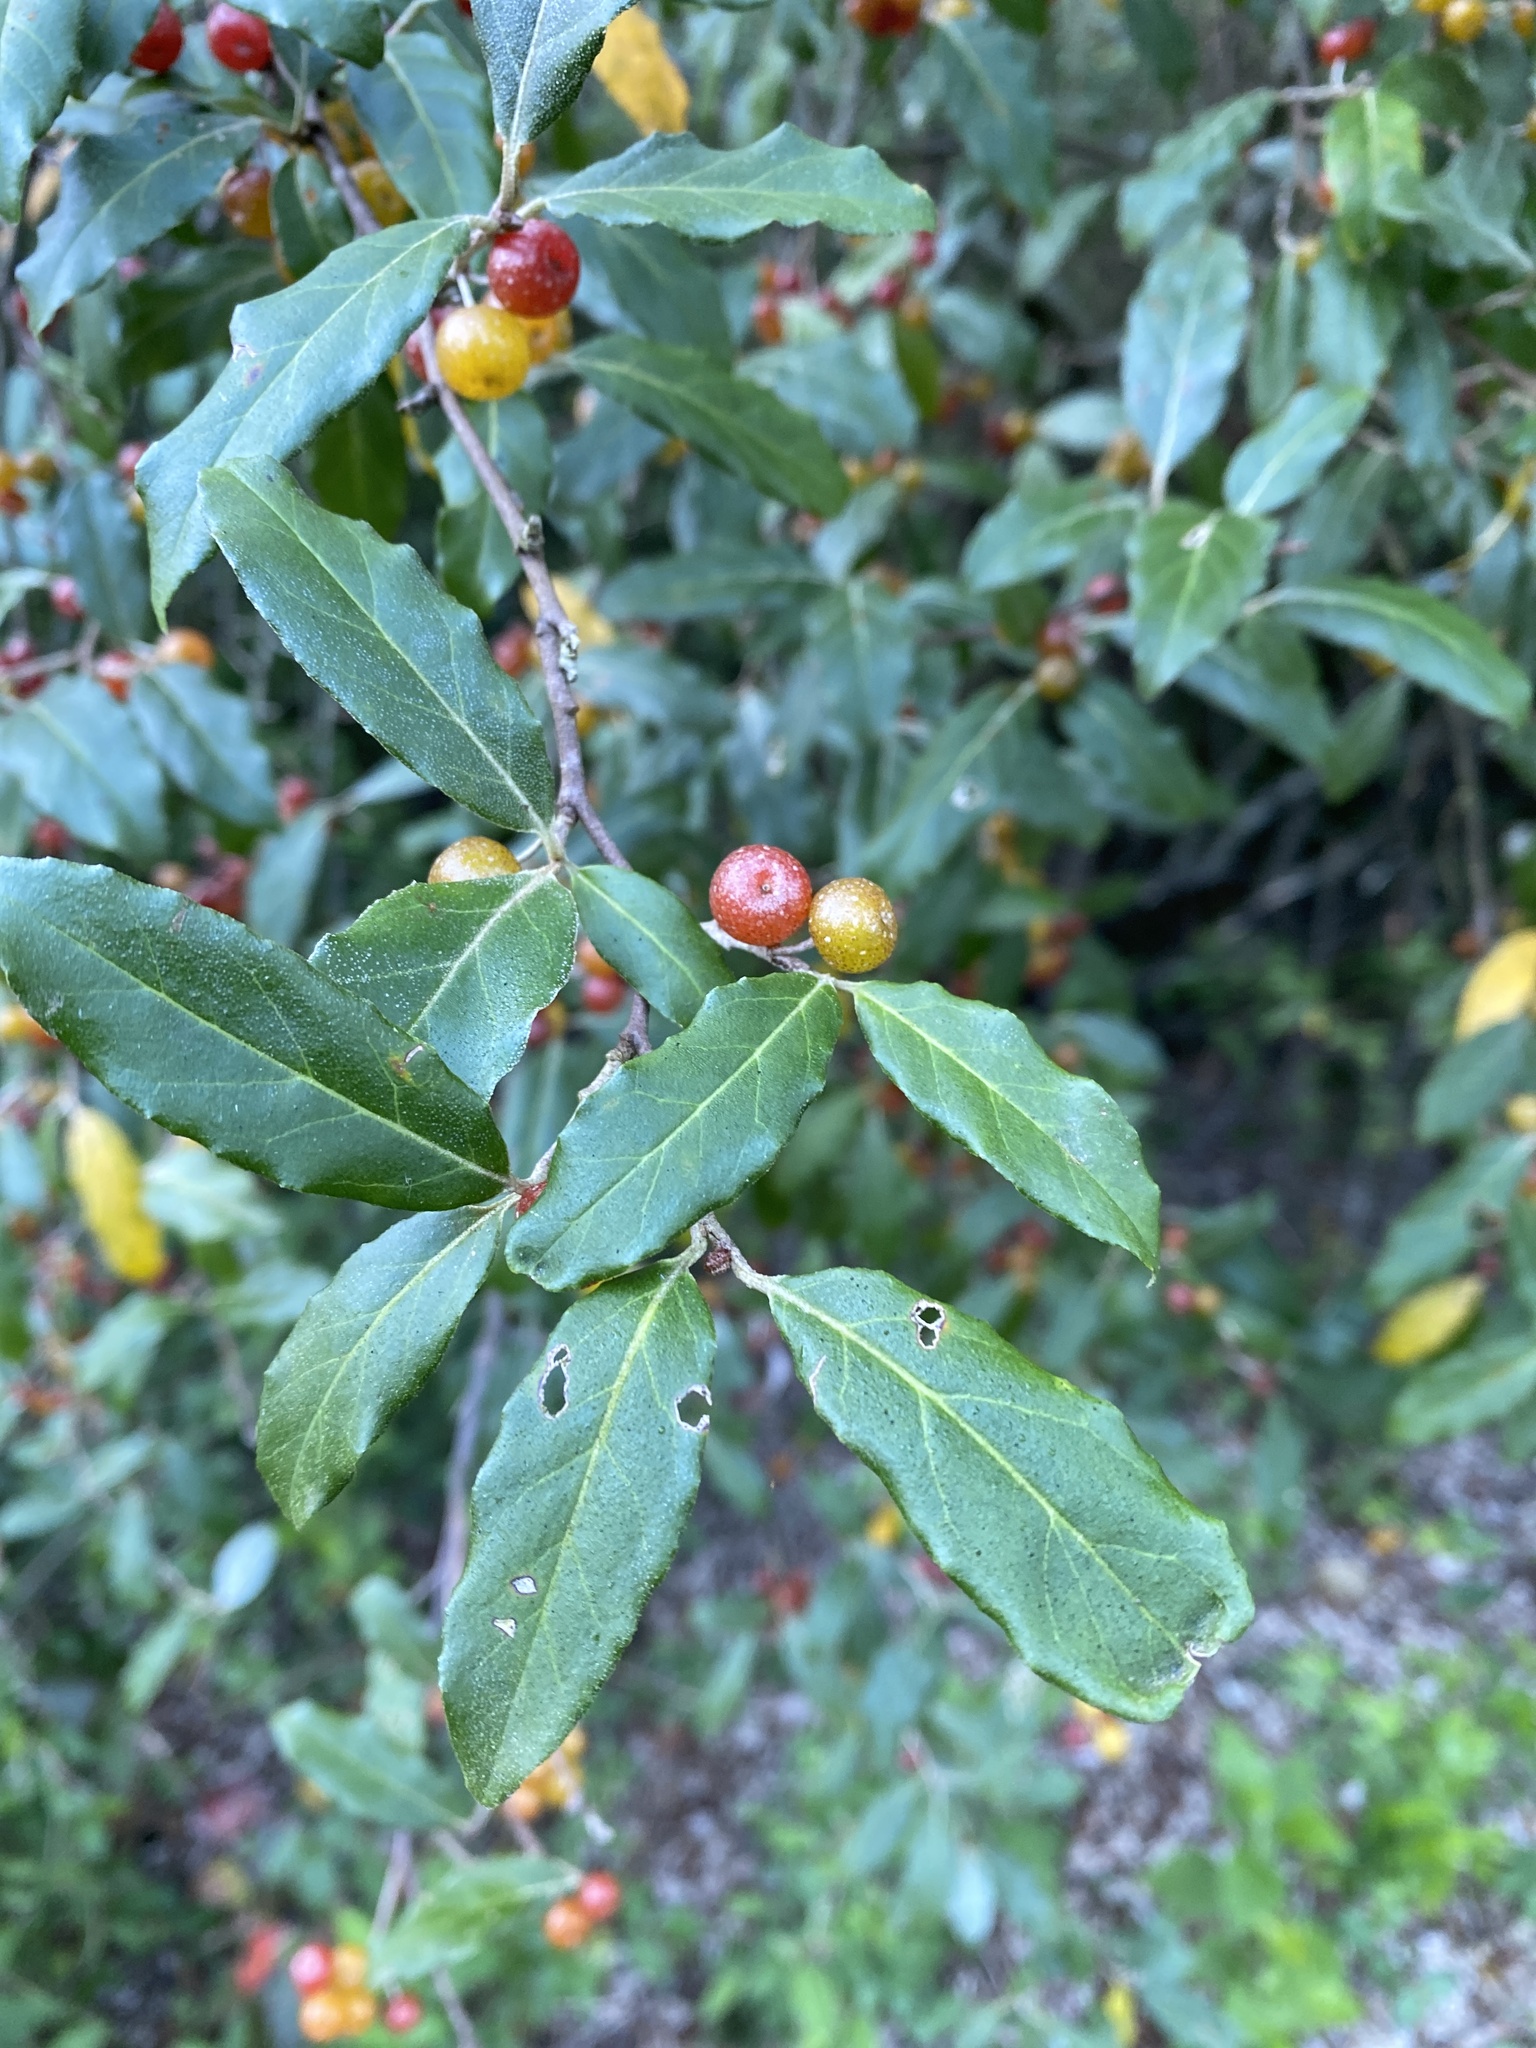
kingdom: Plantae
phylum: Tracheophyta
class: Magnoliopsida
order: Rosales
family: Elaeagnaceae
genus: Elaeagnus
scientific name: Elaeagnus umbellata
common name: Autumn olive
